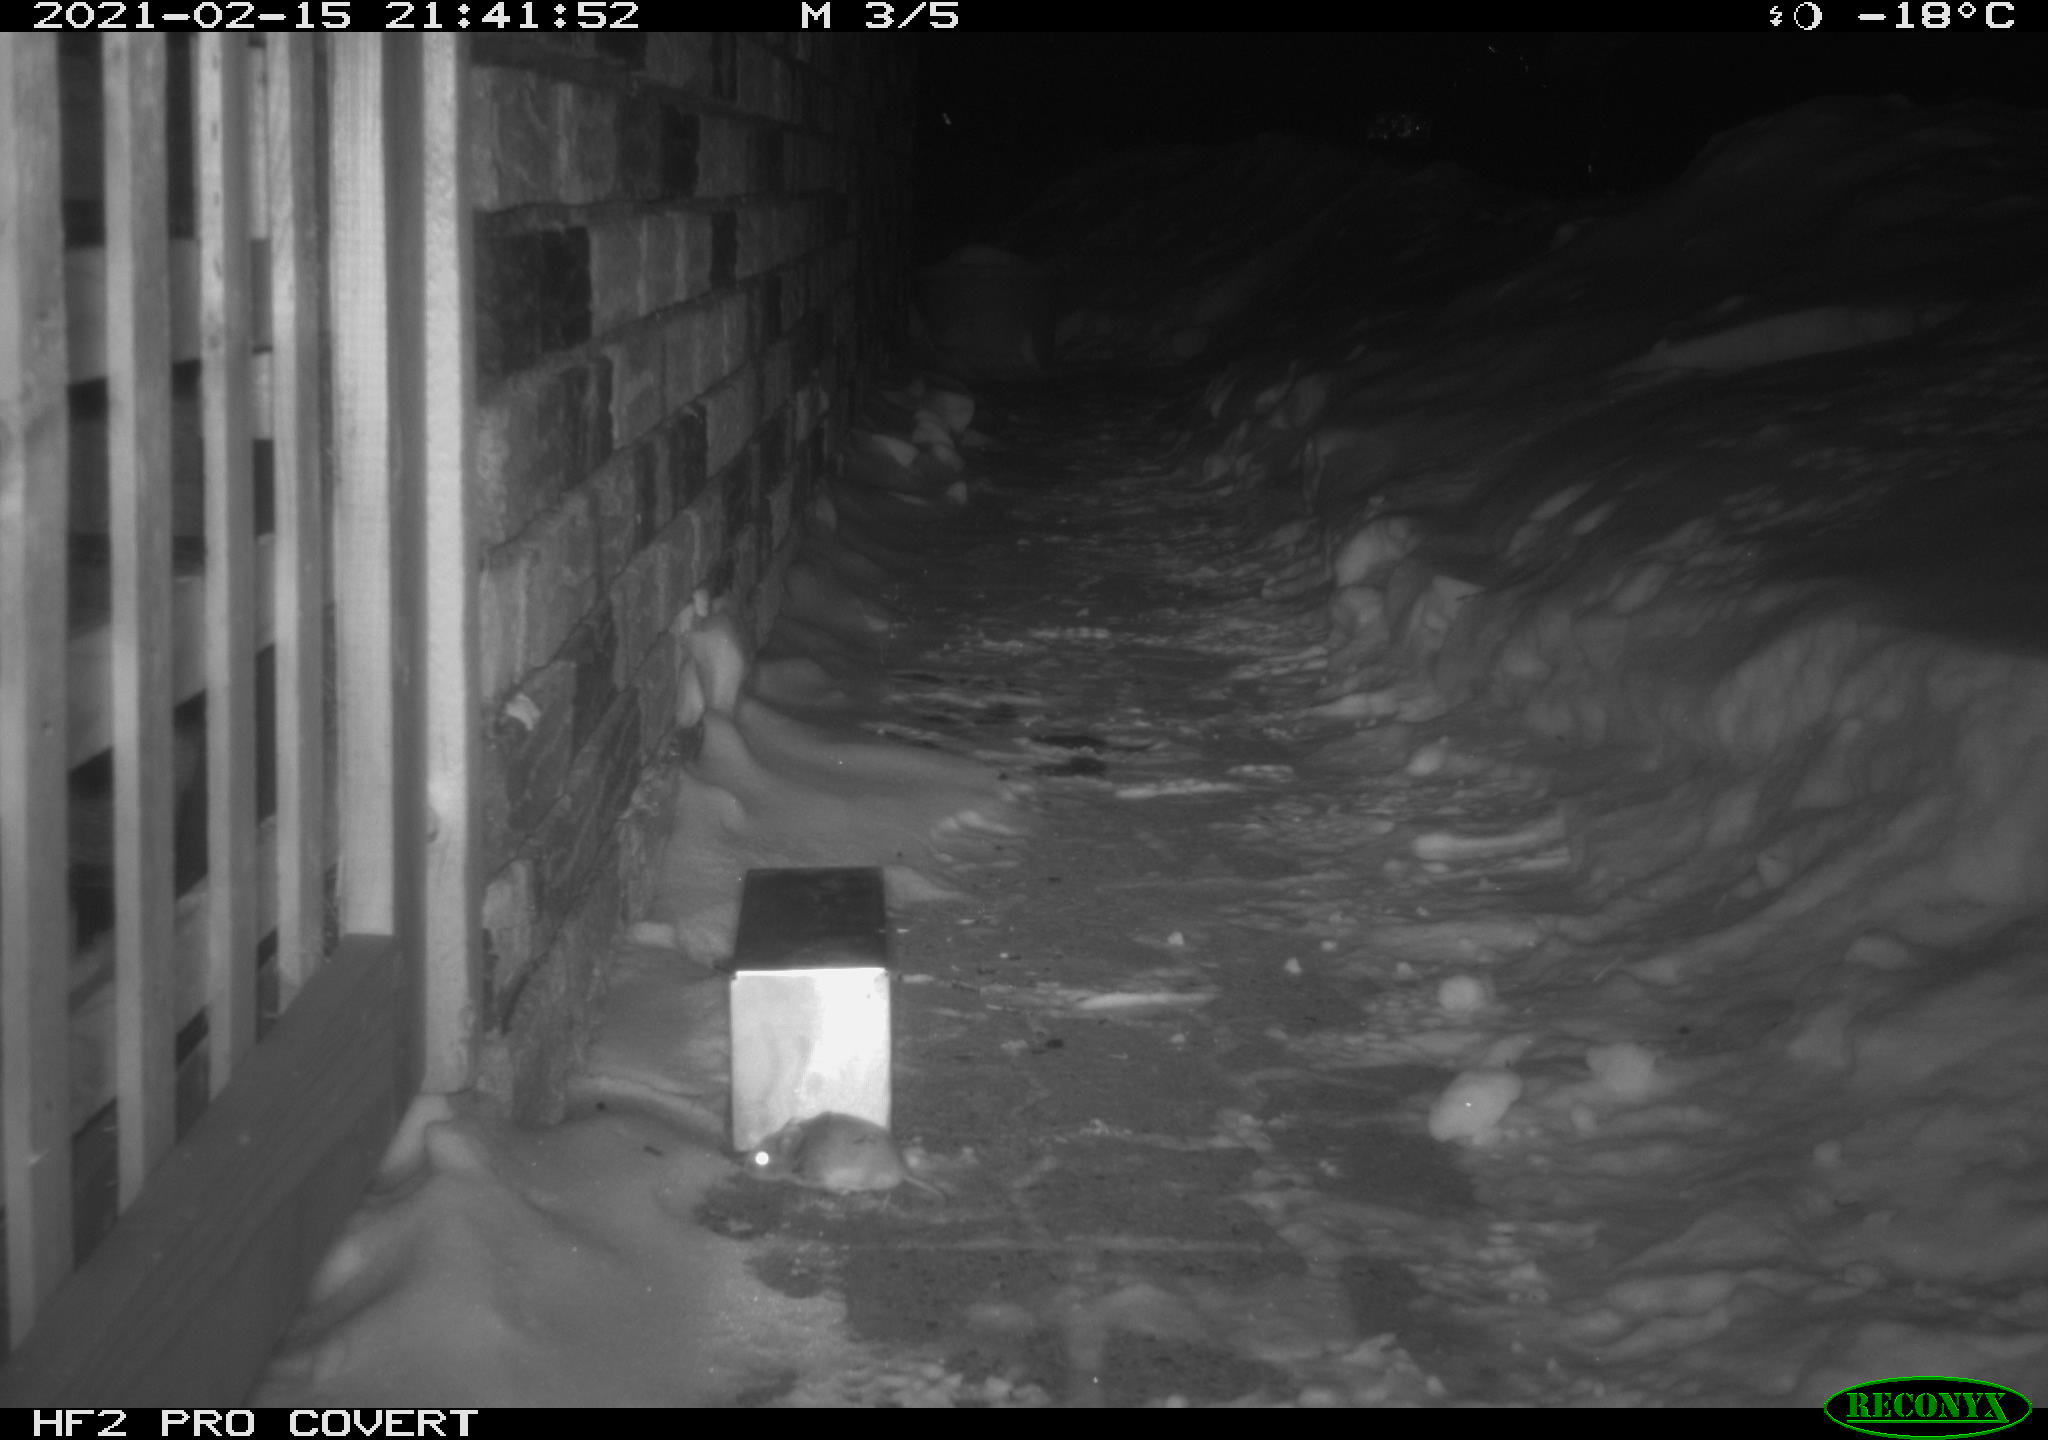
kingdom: Animalia
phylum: Chordata
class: Mammalia
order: Rodentia
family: Cricetidae
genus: Peromyscus
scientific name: Peromyscus maniculatus
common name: Deer mouse
